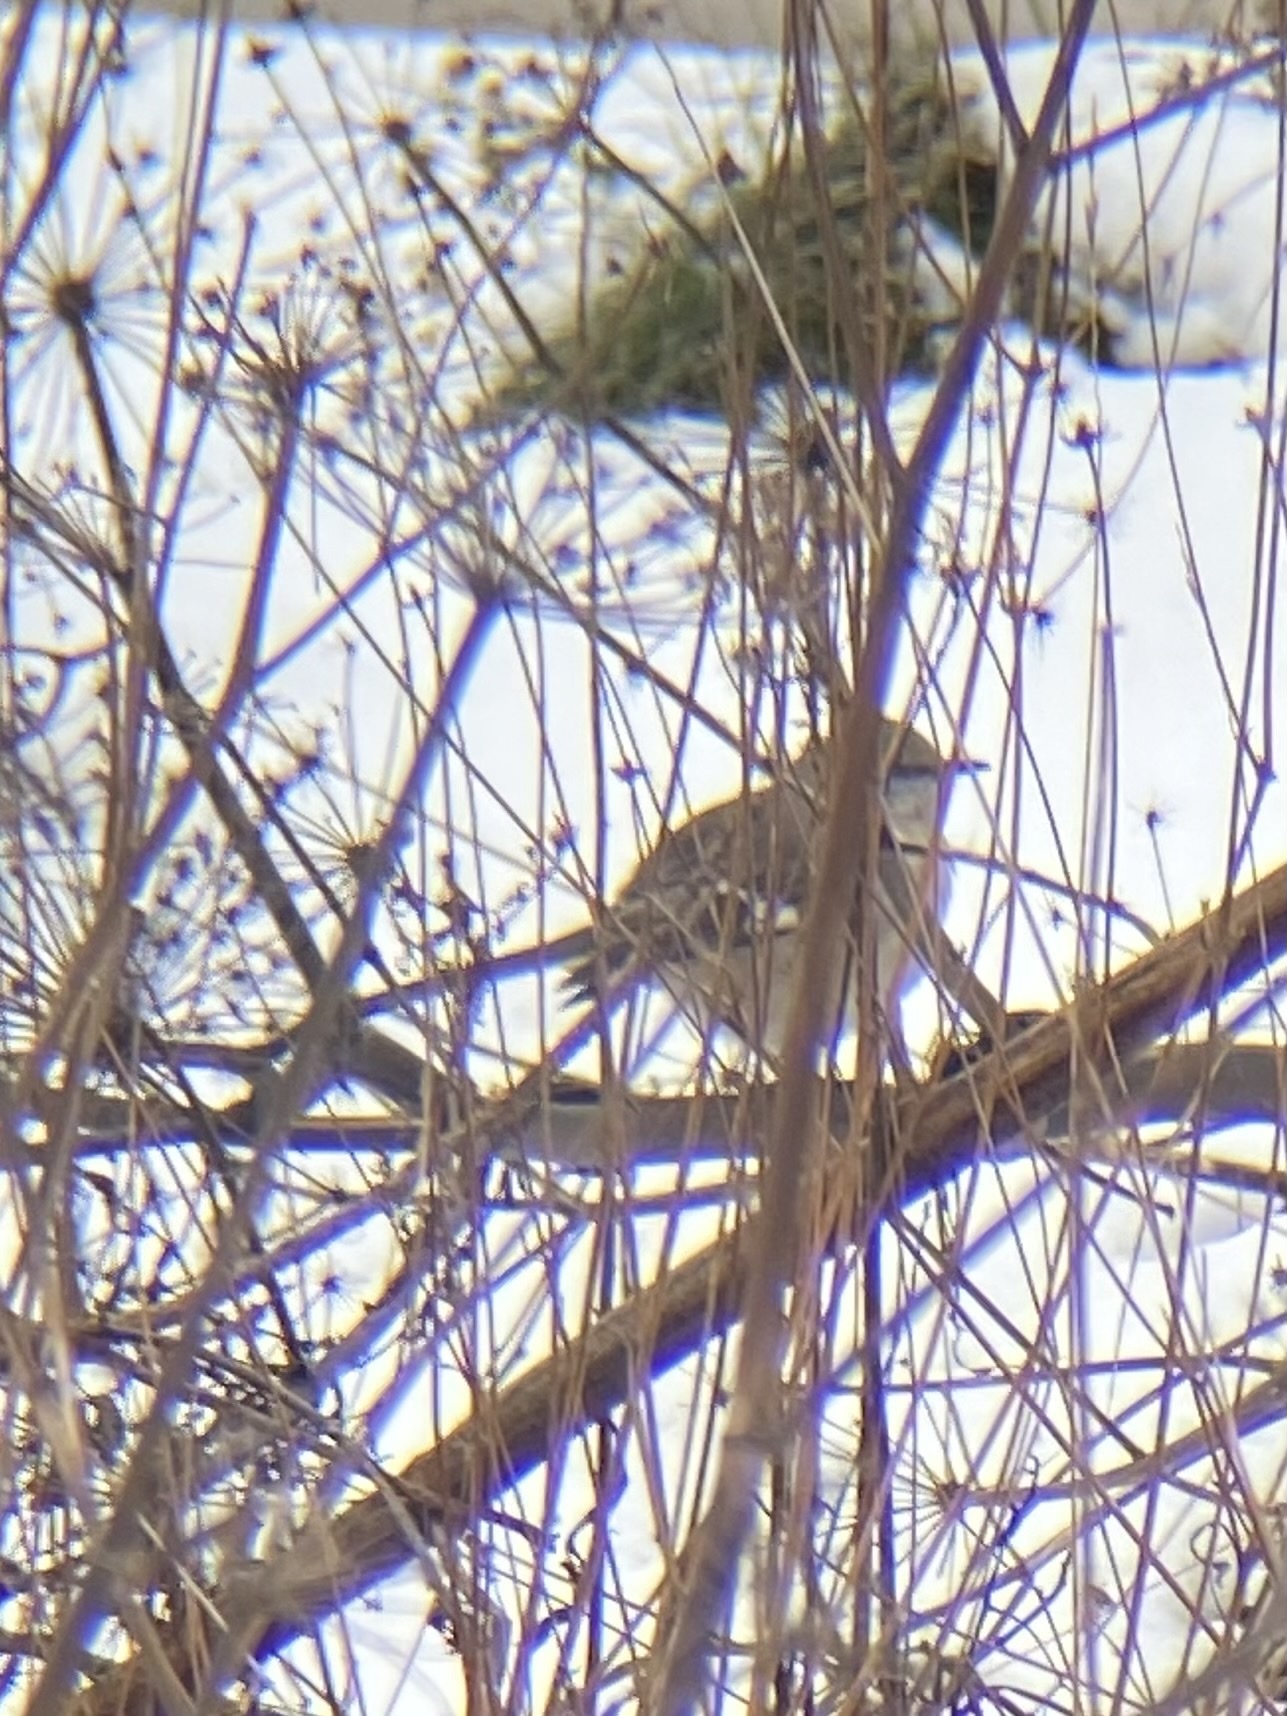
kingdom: Animalia
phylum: Chordata
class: Aves
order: Passeriformes
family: Mimidae
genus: Mimus
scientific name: Mimus polyglottos
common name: Northern mockingbird
